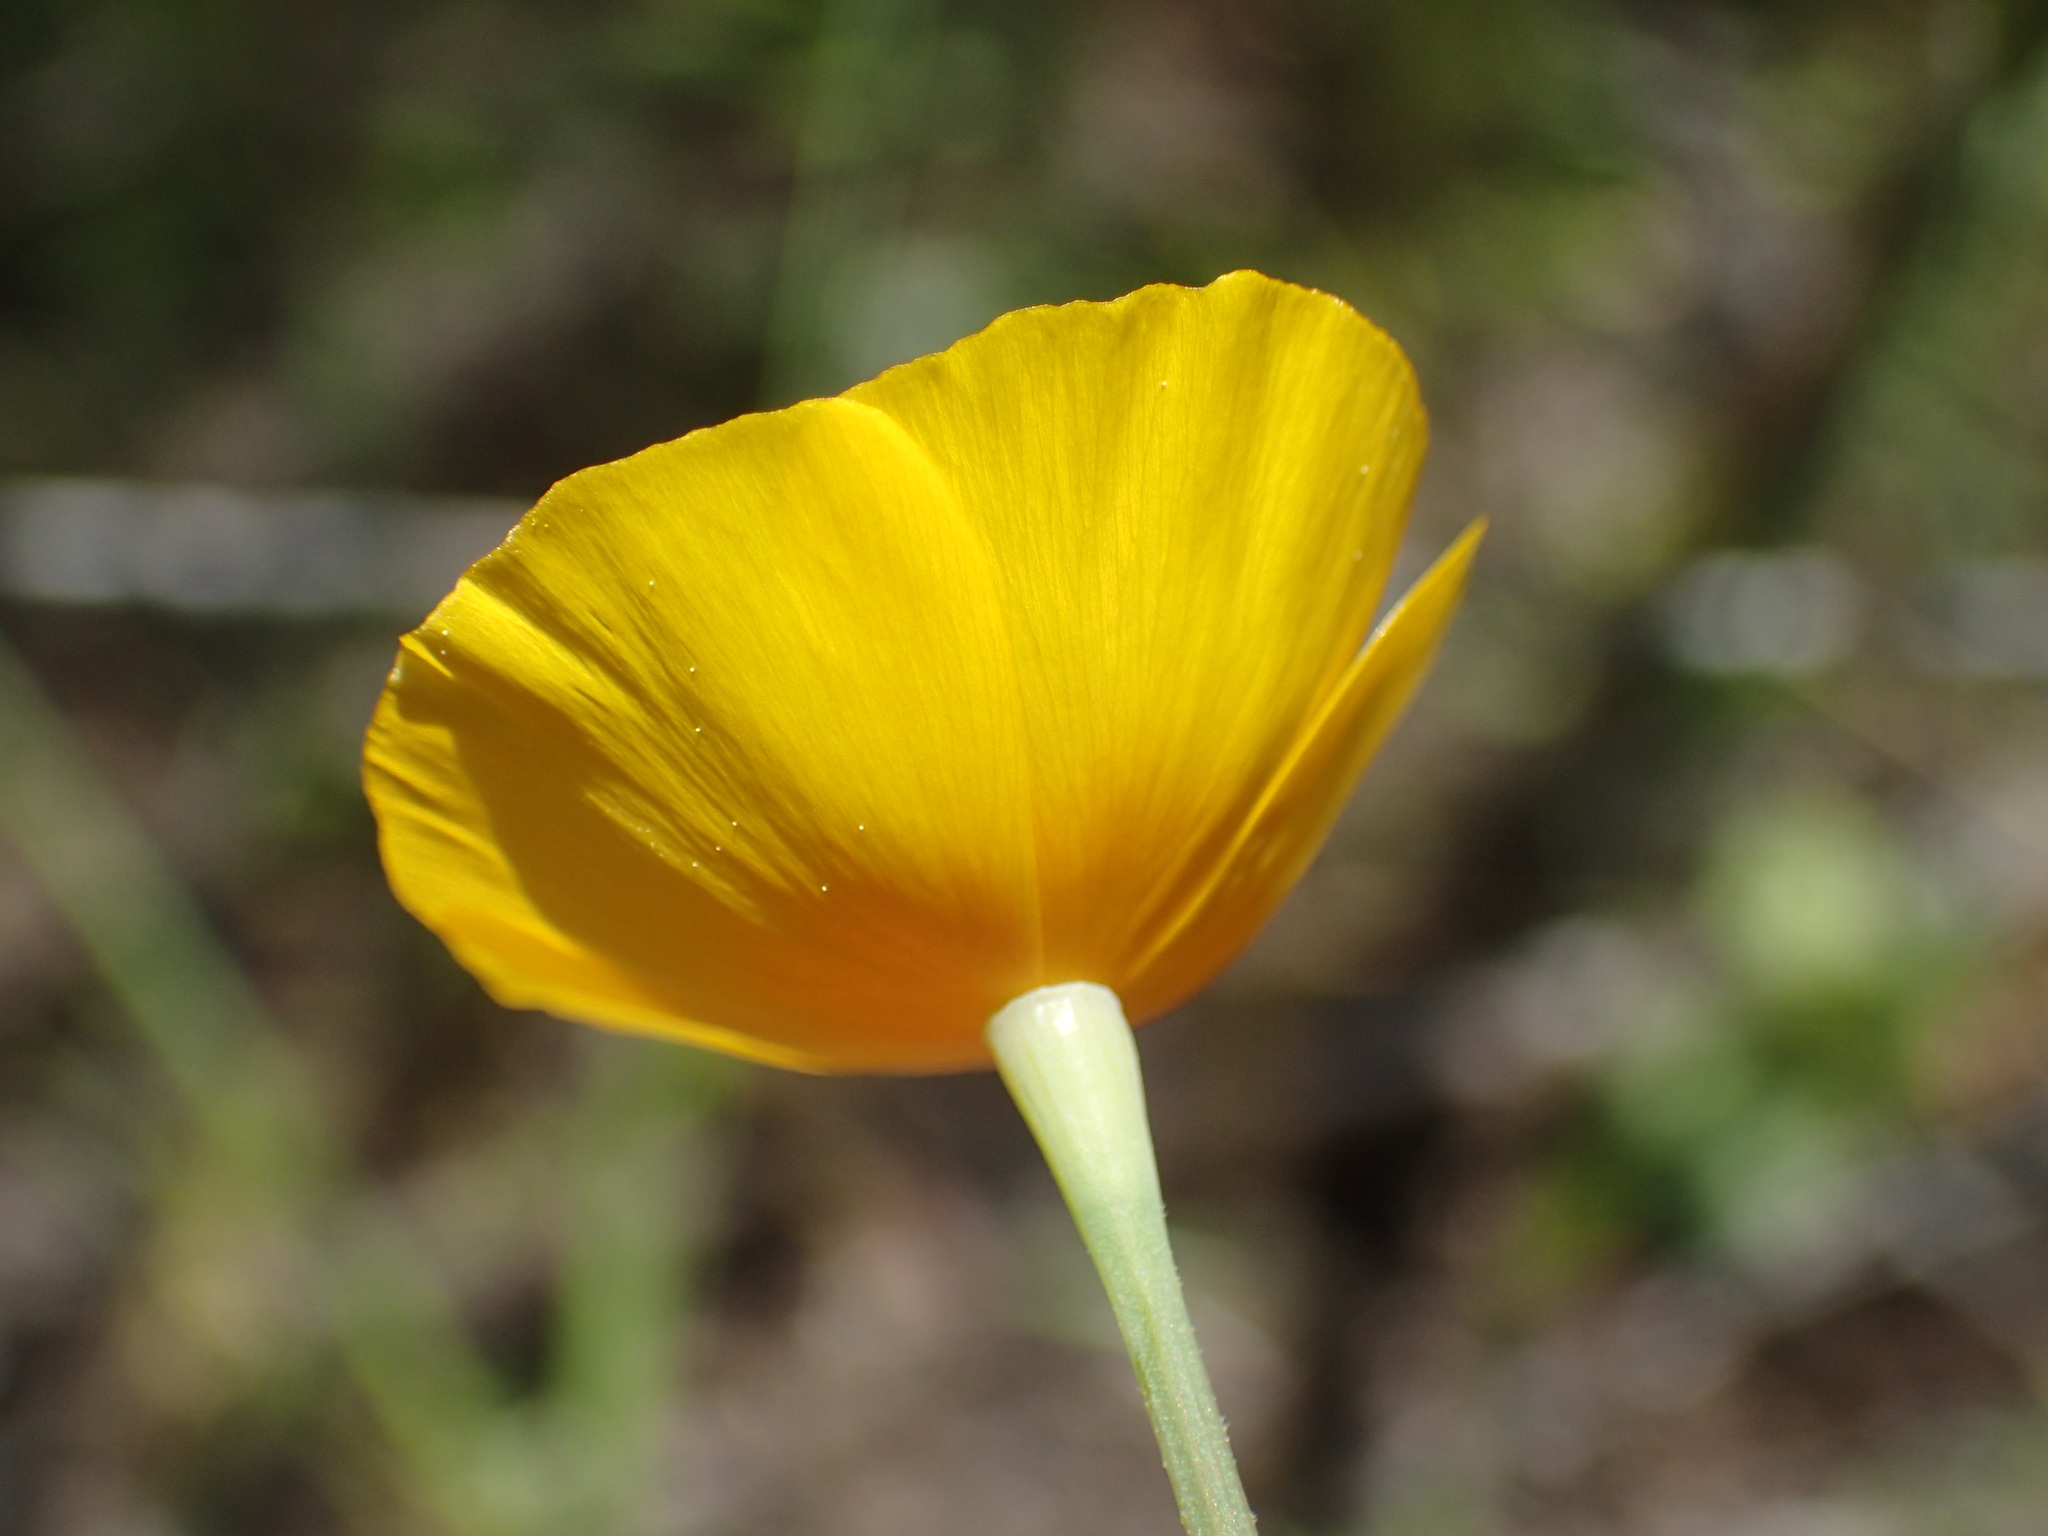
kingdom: Plantae
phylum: Tracheophyta
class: Magnoliopsida
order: Ranunculales
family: Papaveraceae
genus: Eschscholzia
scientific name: Eschscholzia caespitosa
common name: Tufted california-poppy
